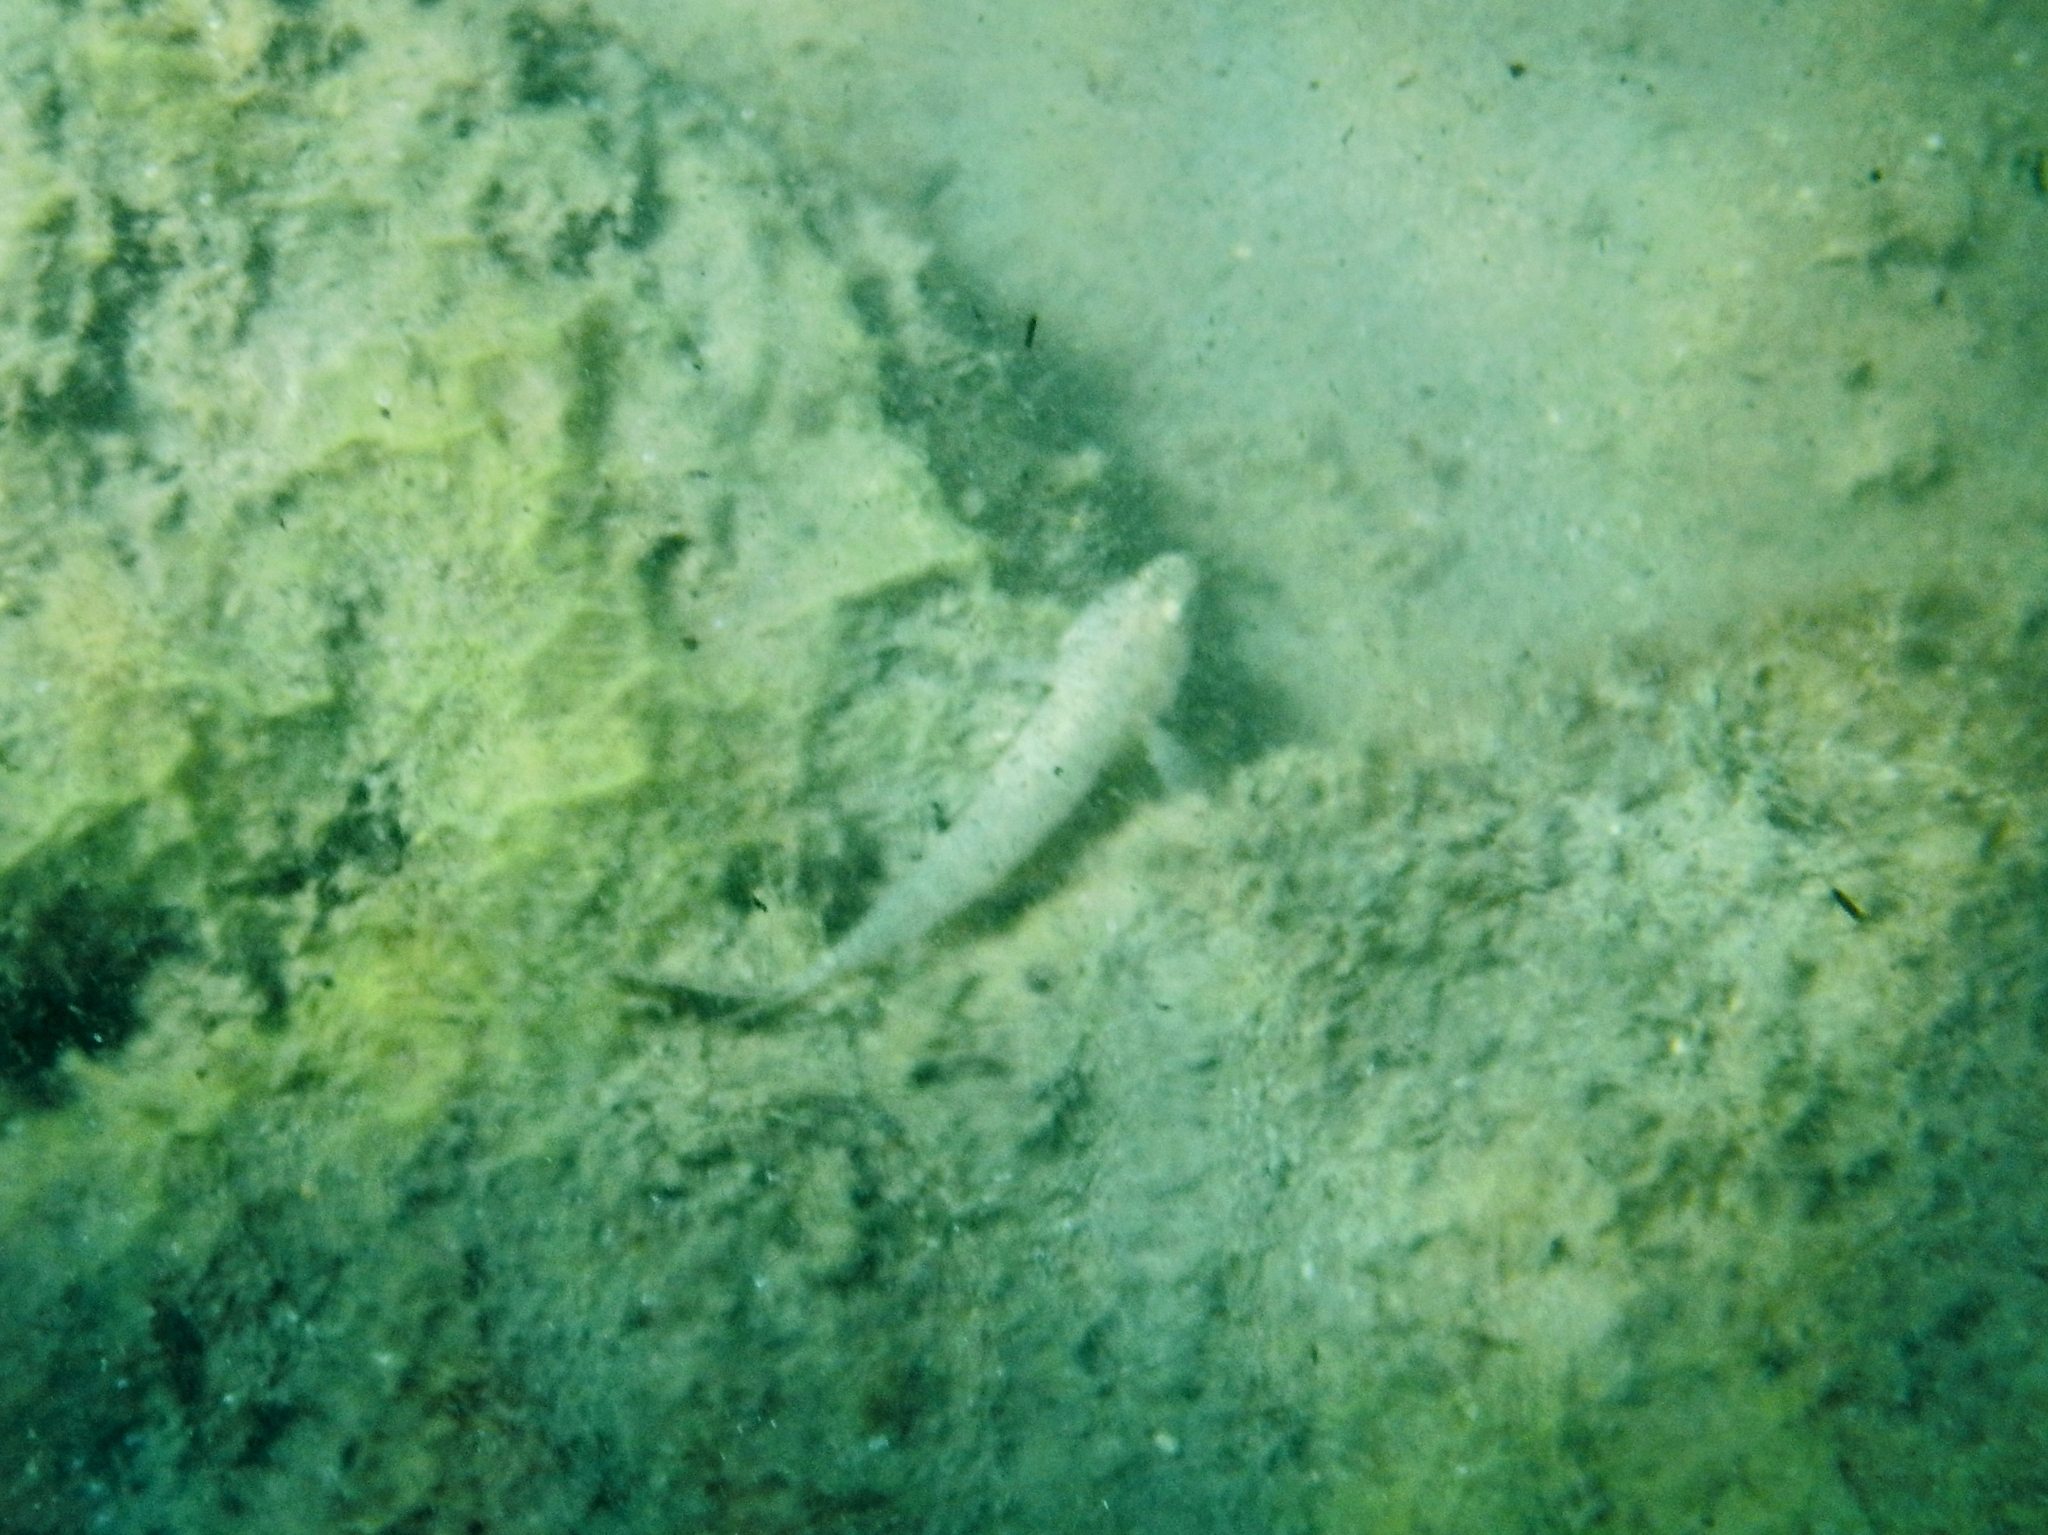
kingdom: Animalia
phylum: Chordata
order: Perciformes
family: Gobiidae
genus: Gobius
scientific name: Gobius
